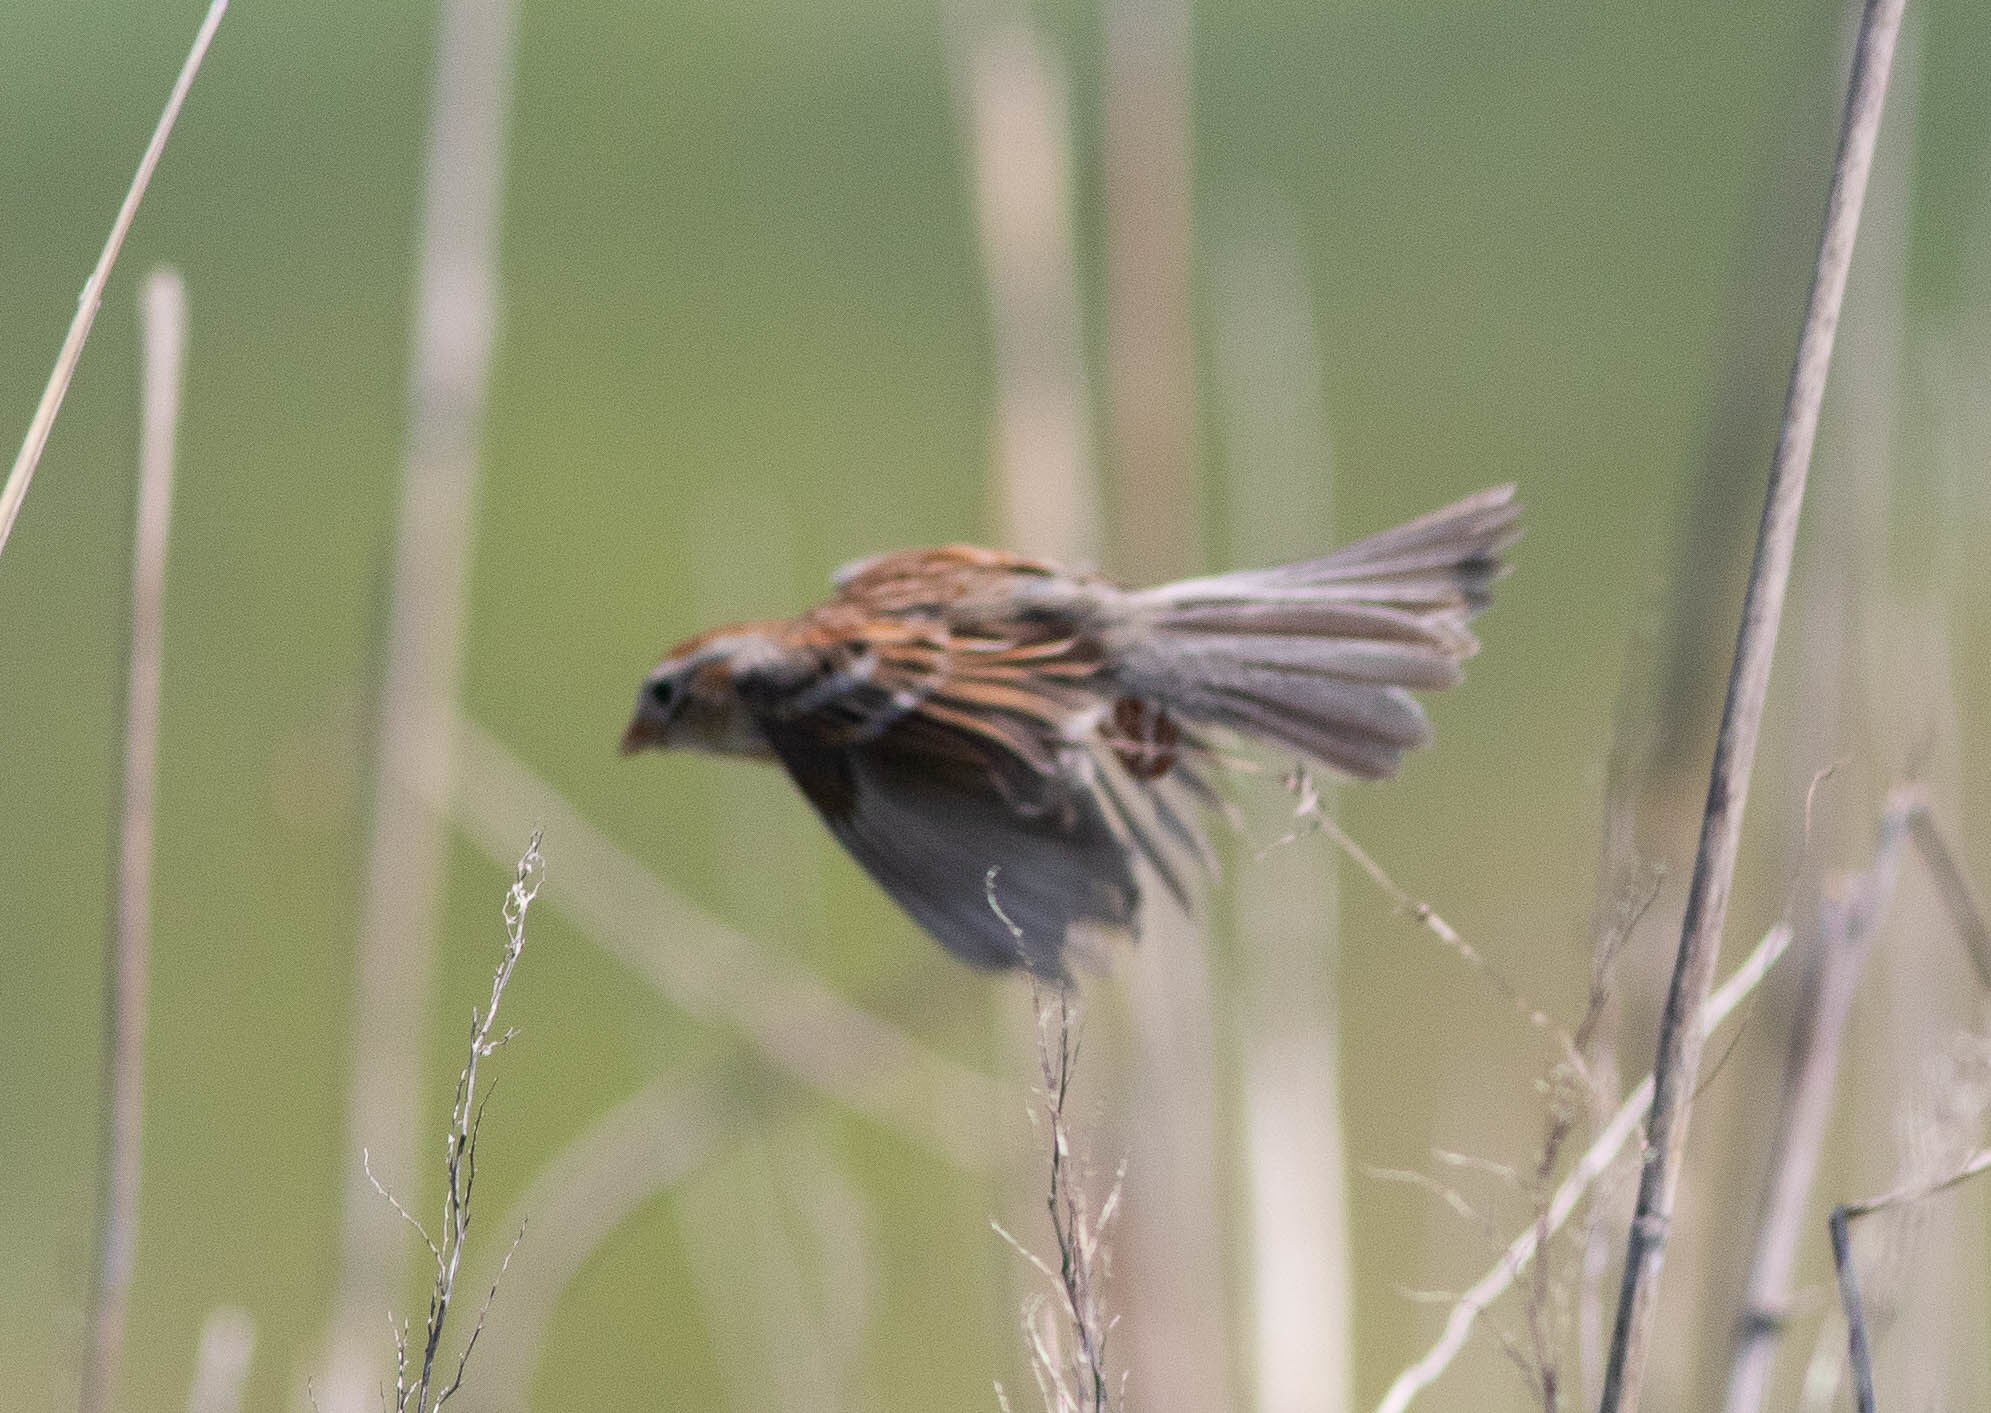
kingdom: Animalia
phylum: Chordata
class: Aves
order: Passeriformes
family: Passerellidae
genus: Spizella
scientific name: Spizella pusilla
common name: Field sparrow
